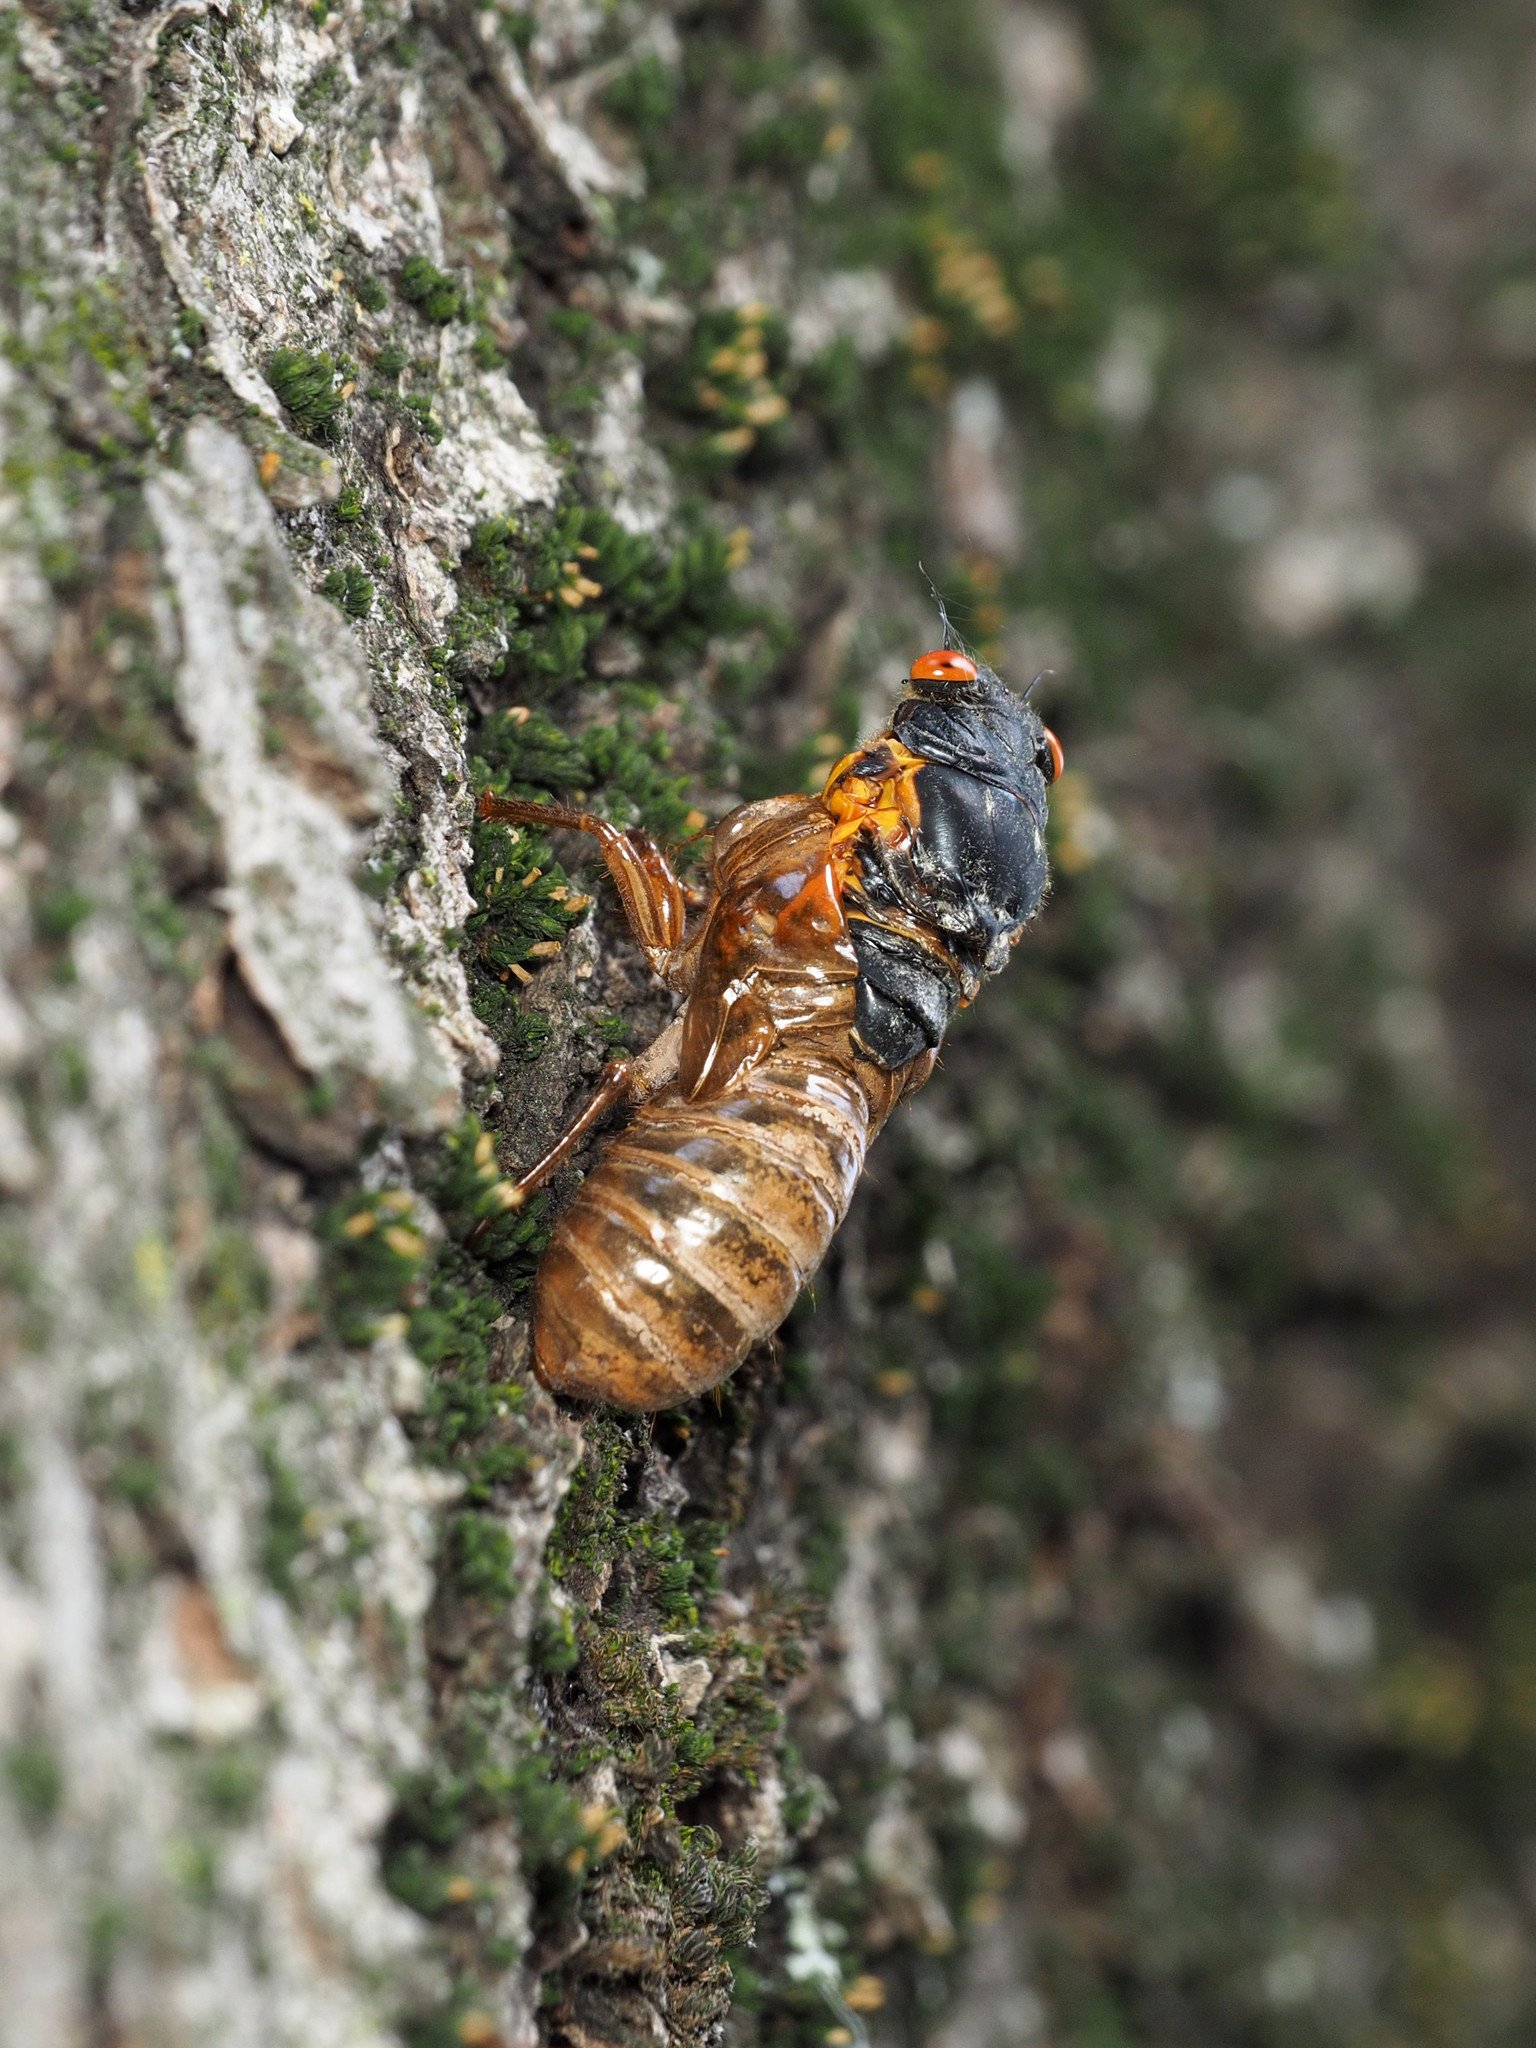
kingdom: Animalia
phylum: Arthropoda
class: Insecta
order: Hemiptera
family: Cicadidae
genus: Magicicada
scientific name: Magicicada
